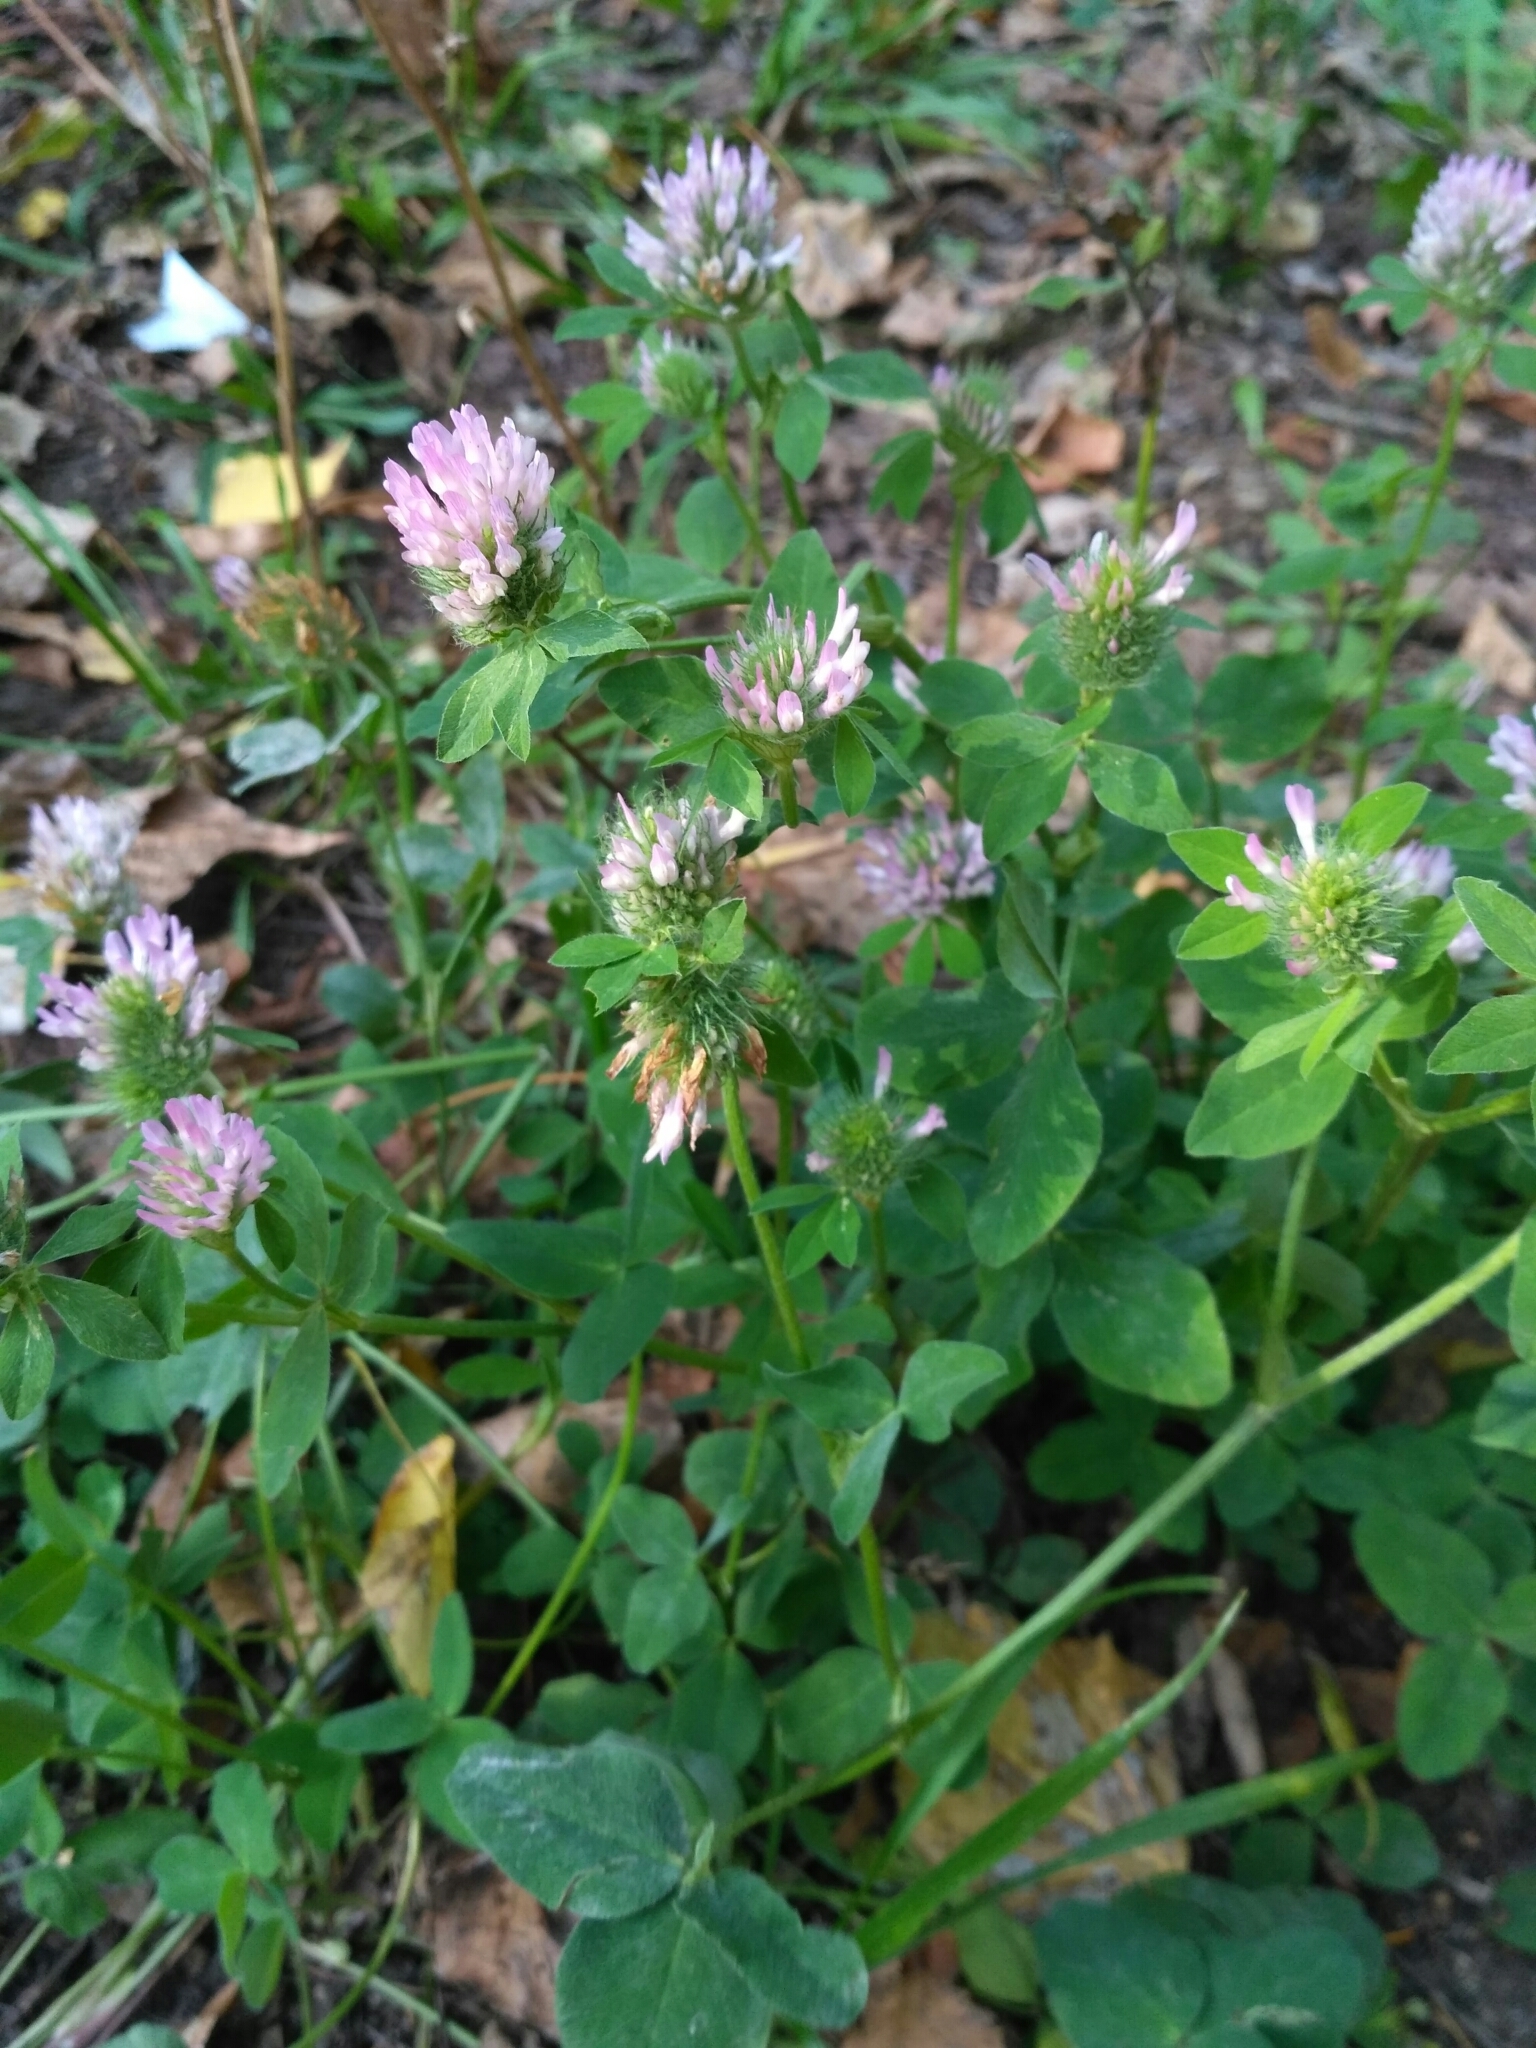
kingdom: Plantae
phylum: Tracheophyta
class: Magnoliopsida
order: Fabales
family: Fabaceae
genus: Trifolium
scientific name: Trifolium pratense
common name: Red clover
